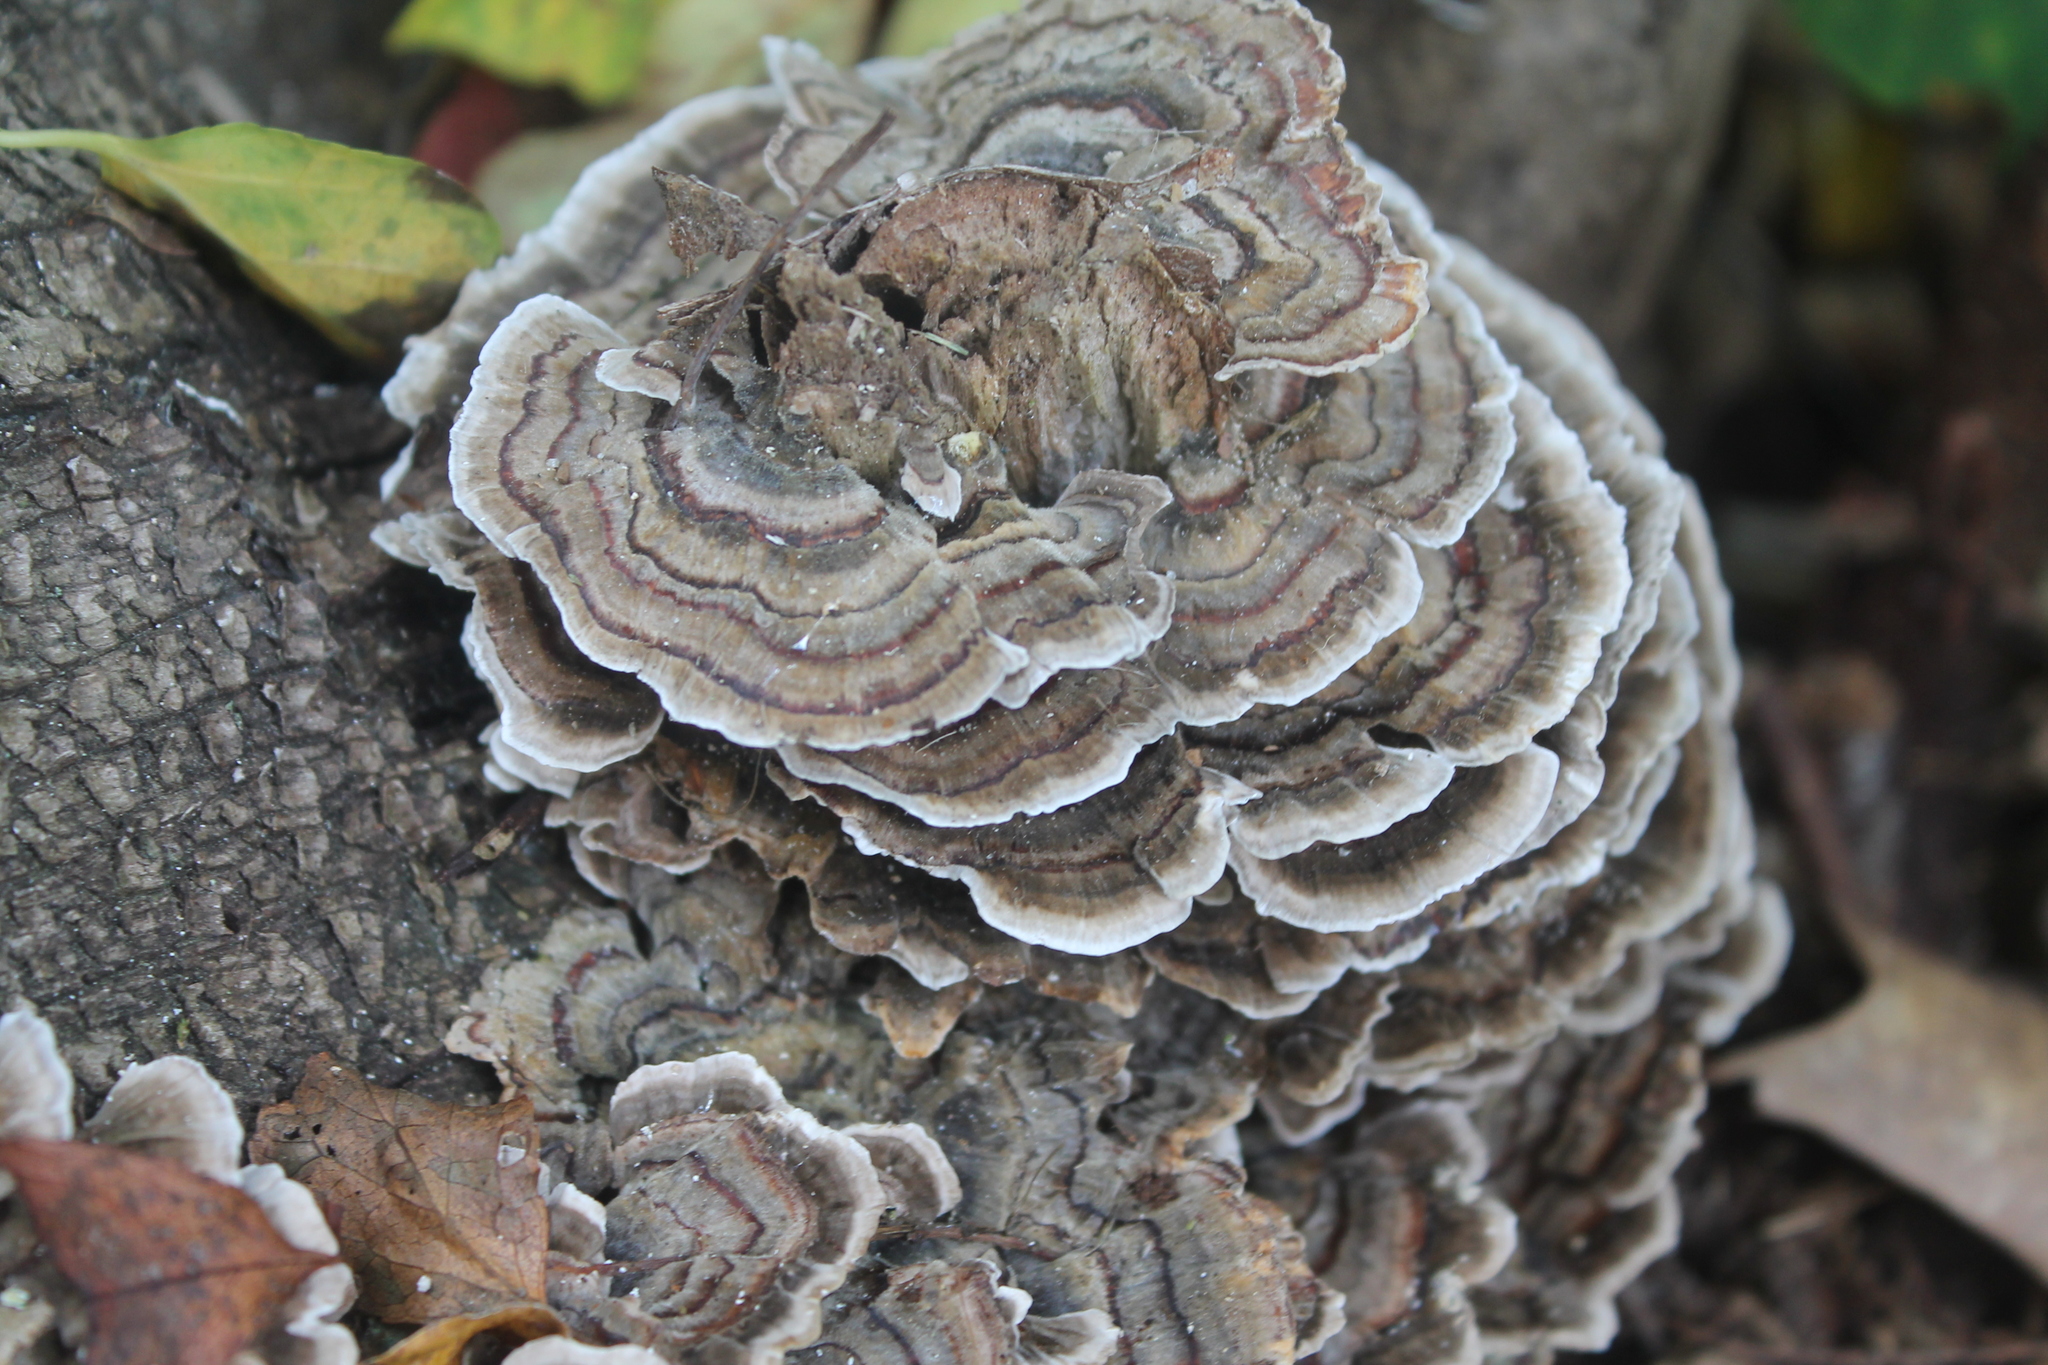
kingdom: Fungi
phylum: Basidiomycota
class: Agaricomycetes
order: Polyporales
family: Polyporaceae
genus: Trametes
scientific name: Trametes versicolor
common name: Turkeytail
